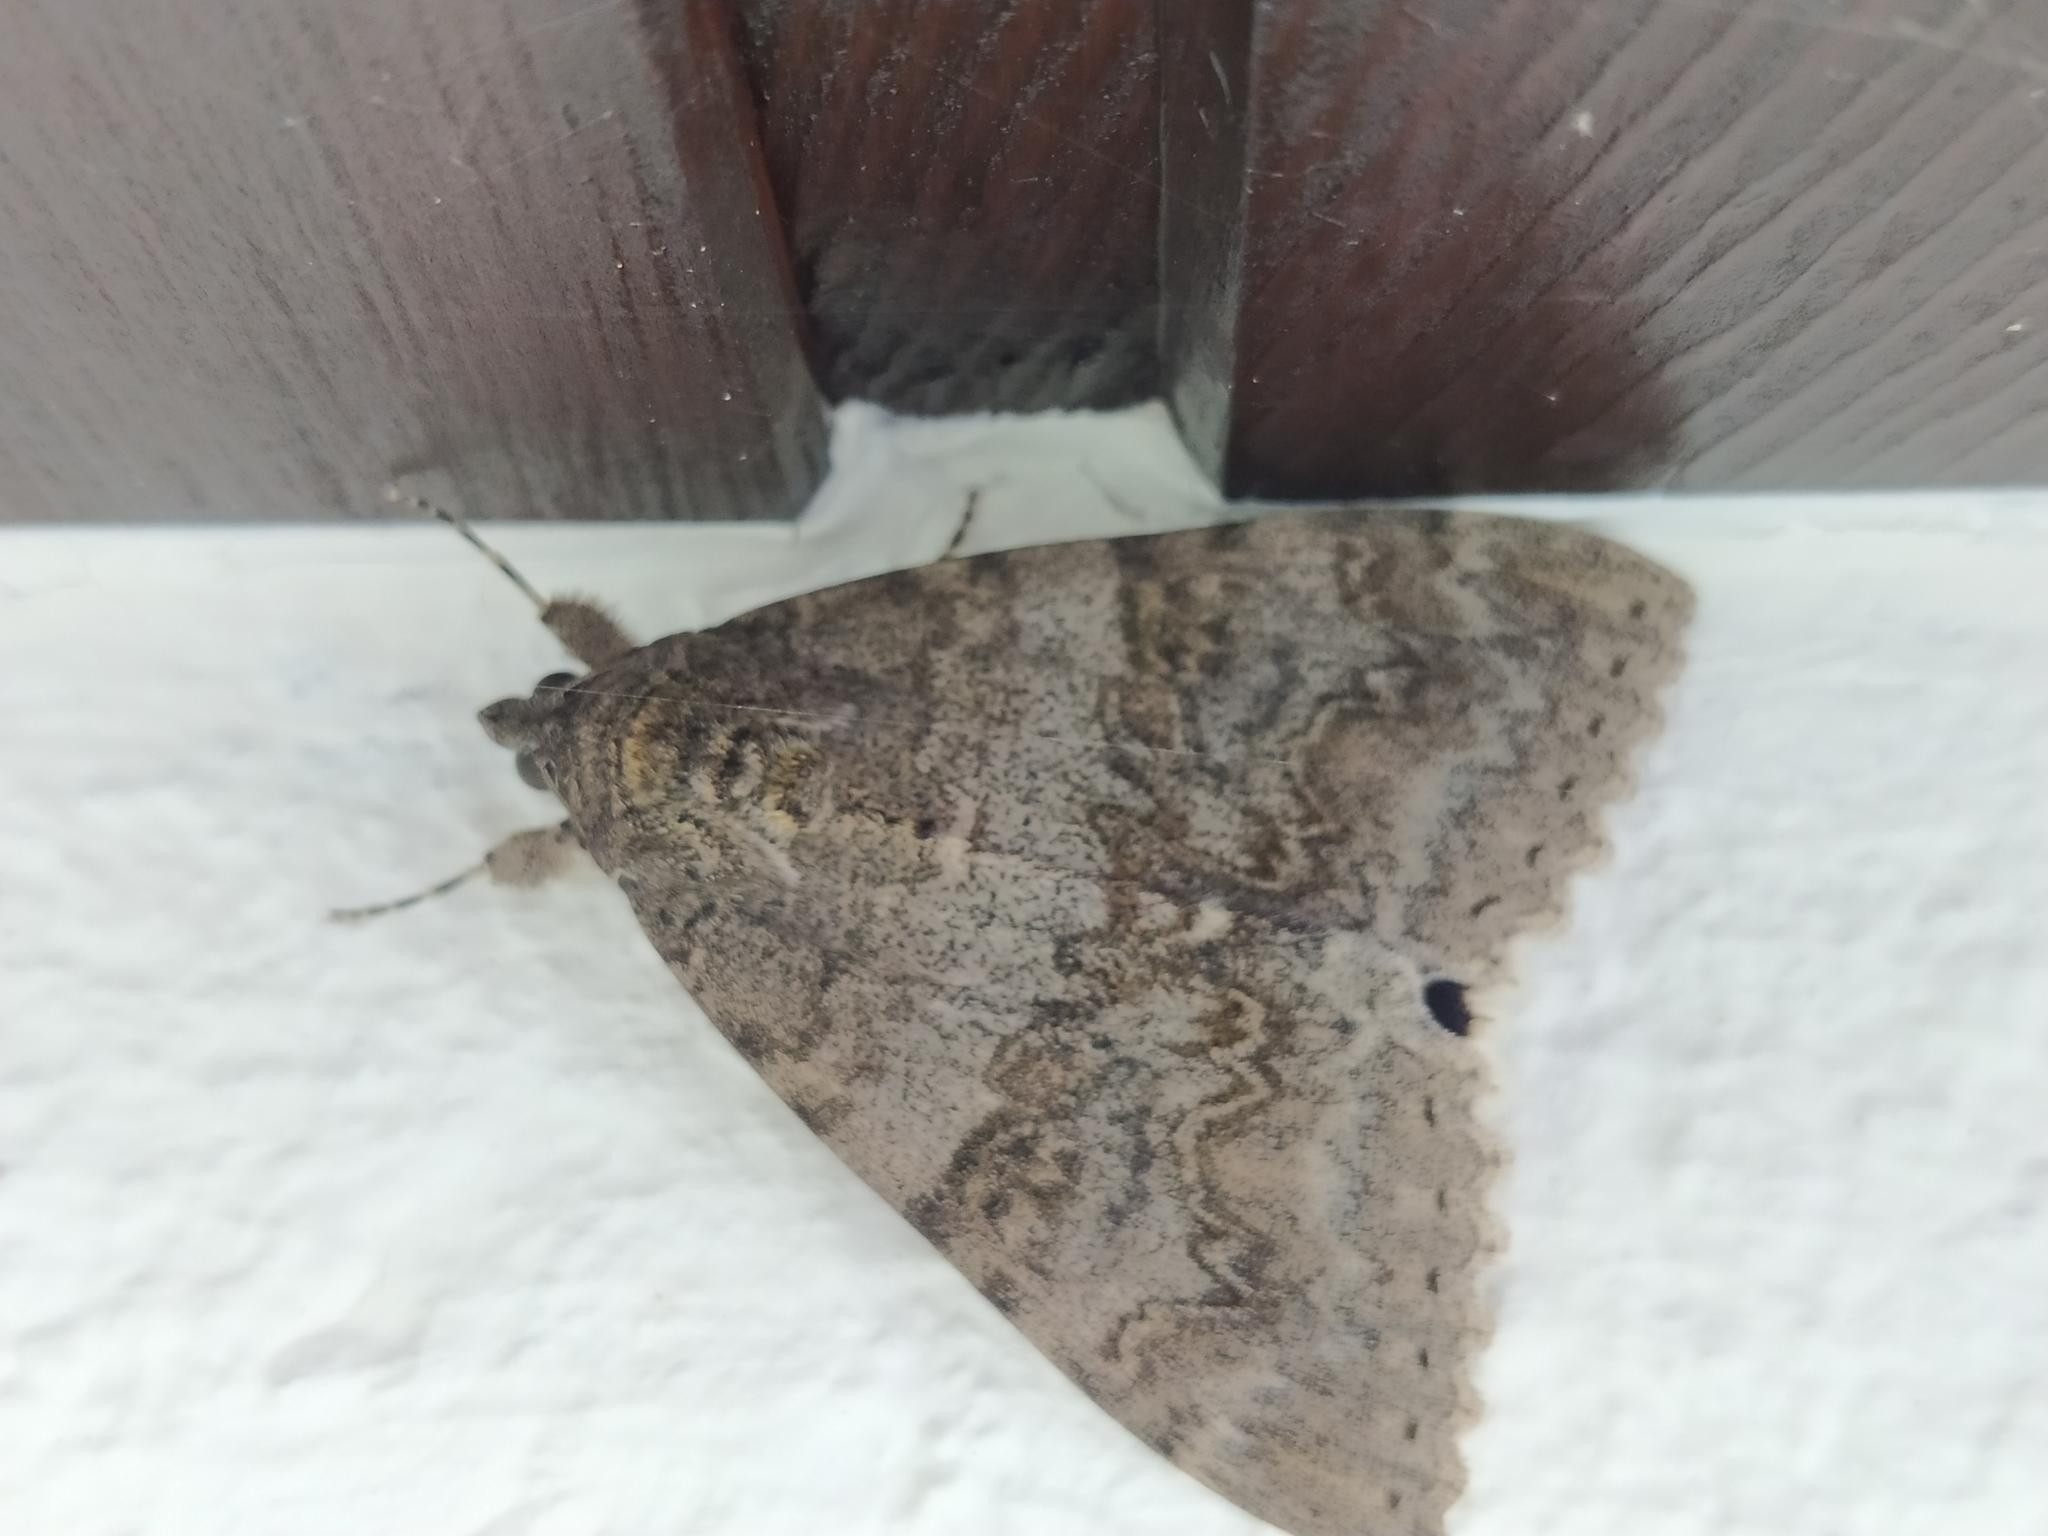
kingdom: Animalia
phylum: Arthropoda
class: Insecta
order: Lepidoptera
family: Erebidae
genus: Catocala
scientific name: Catocala nupta
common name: Red underwing
